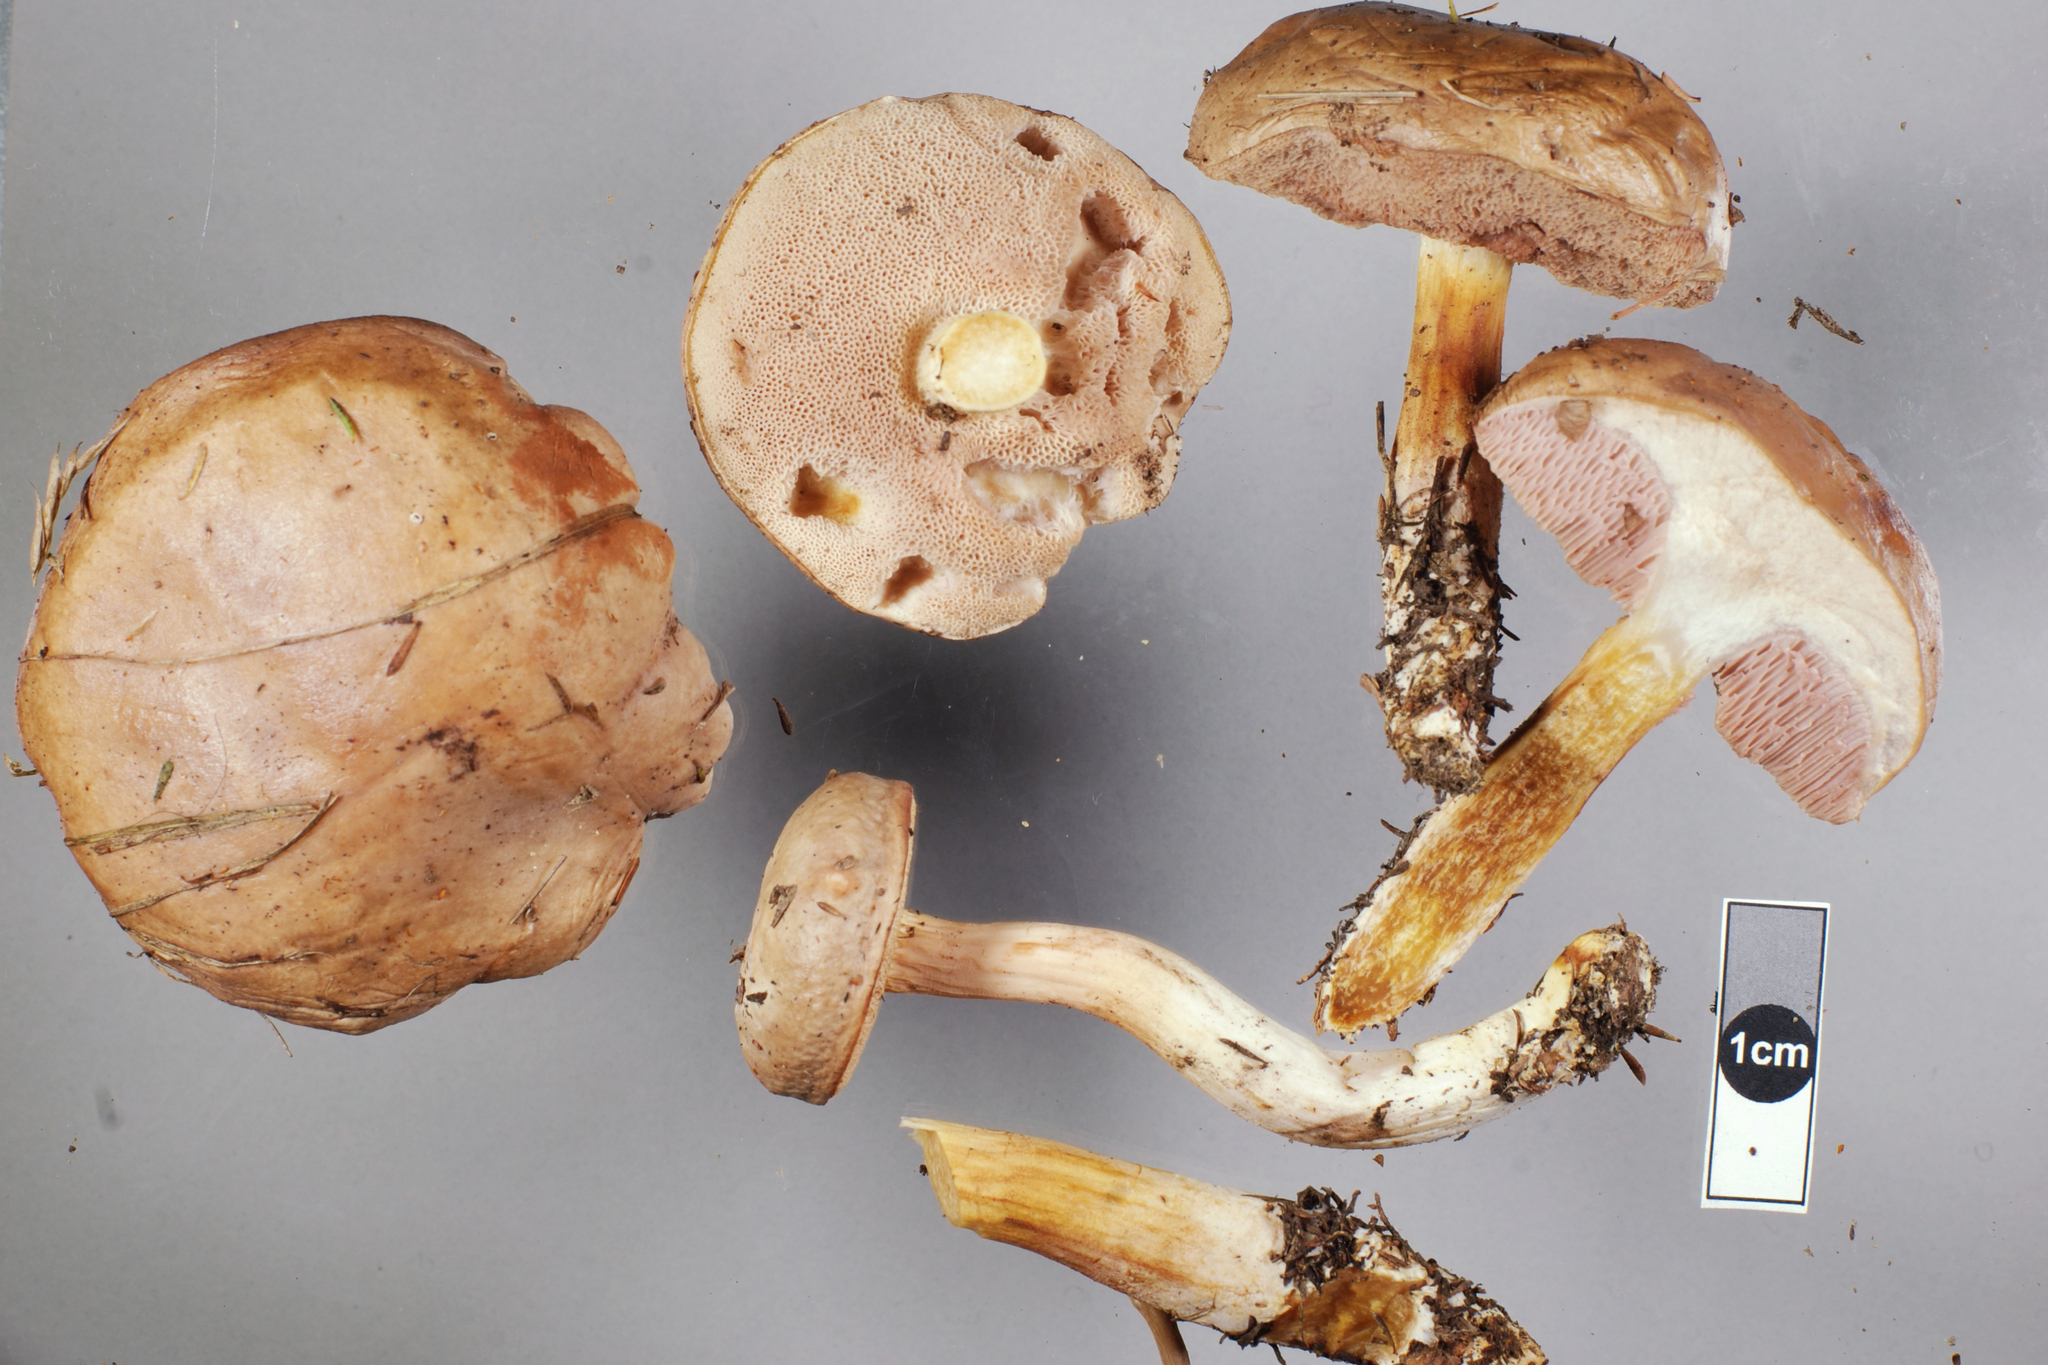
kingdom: Fungi
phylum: Basidiomycota
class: Agaricomycetes
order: Boletales
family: Boletaceae
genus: Fistulinella
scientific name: Fistulinella viscida
